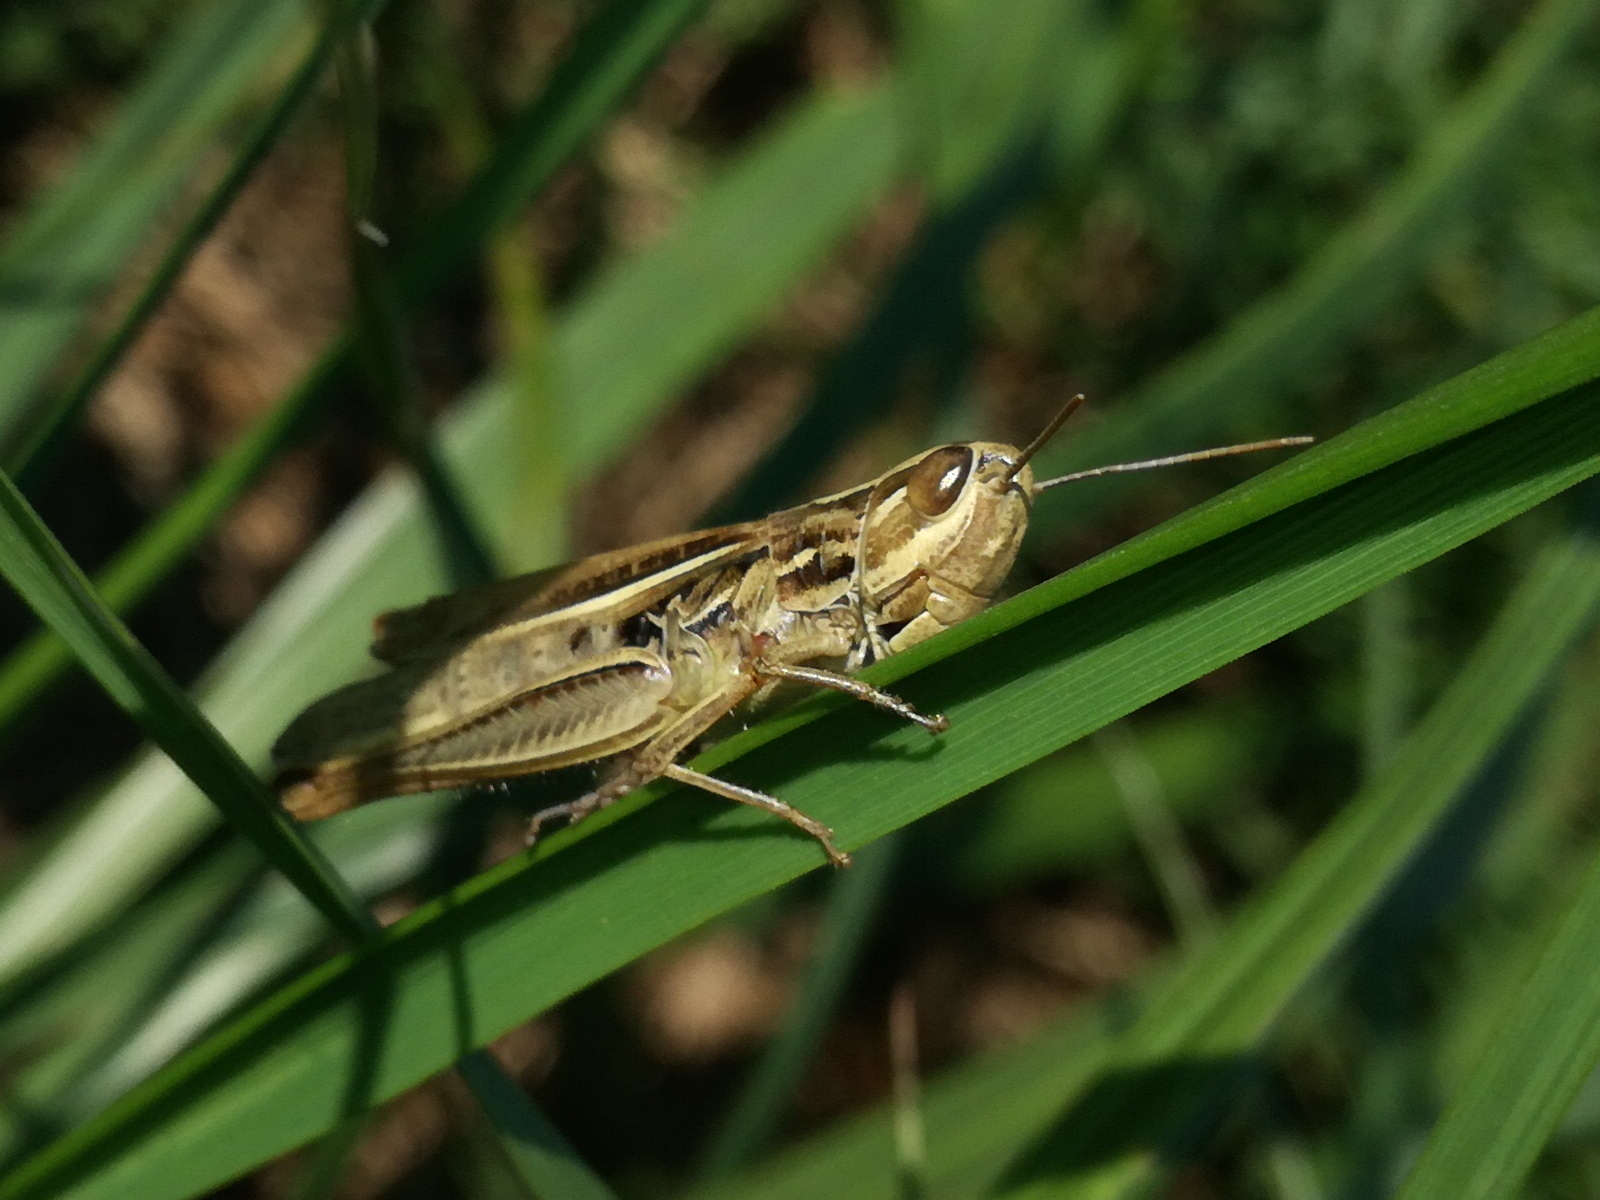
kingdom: Animalia
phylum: Arthropoda
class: Insecta
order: Orthoptera
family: Acrididae
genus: Euchorthippus
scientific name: Euchorthippus declivus
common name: Common straw grasshopper
